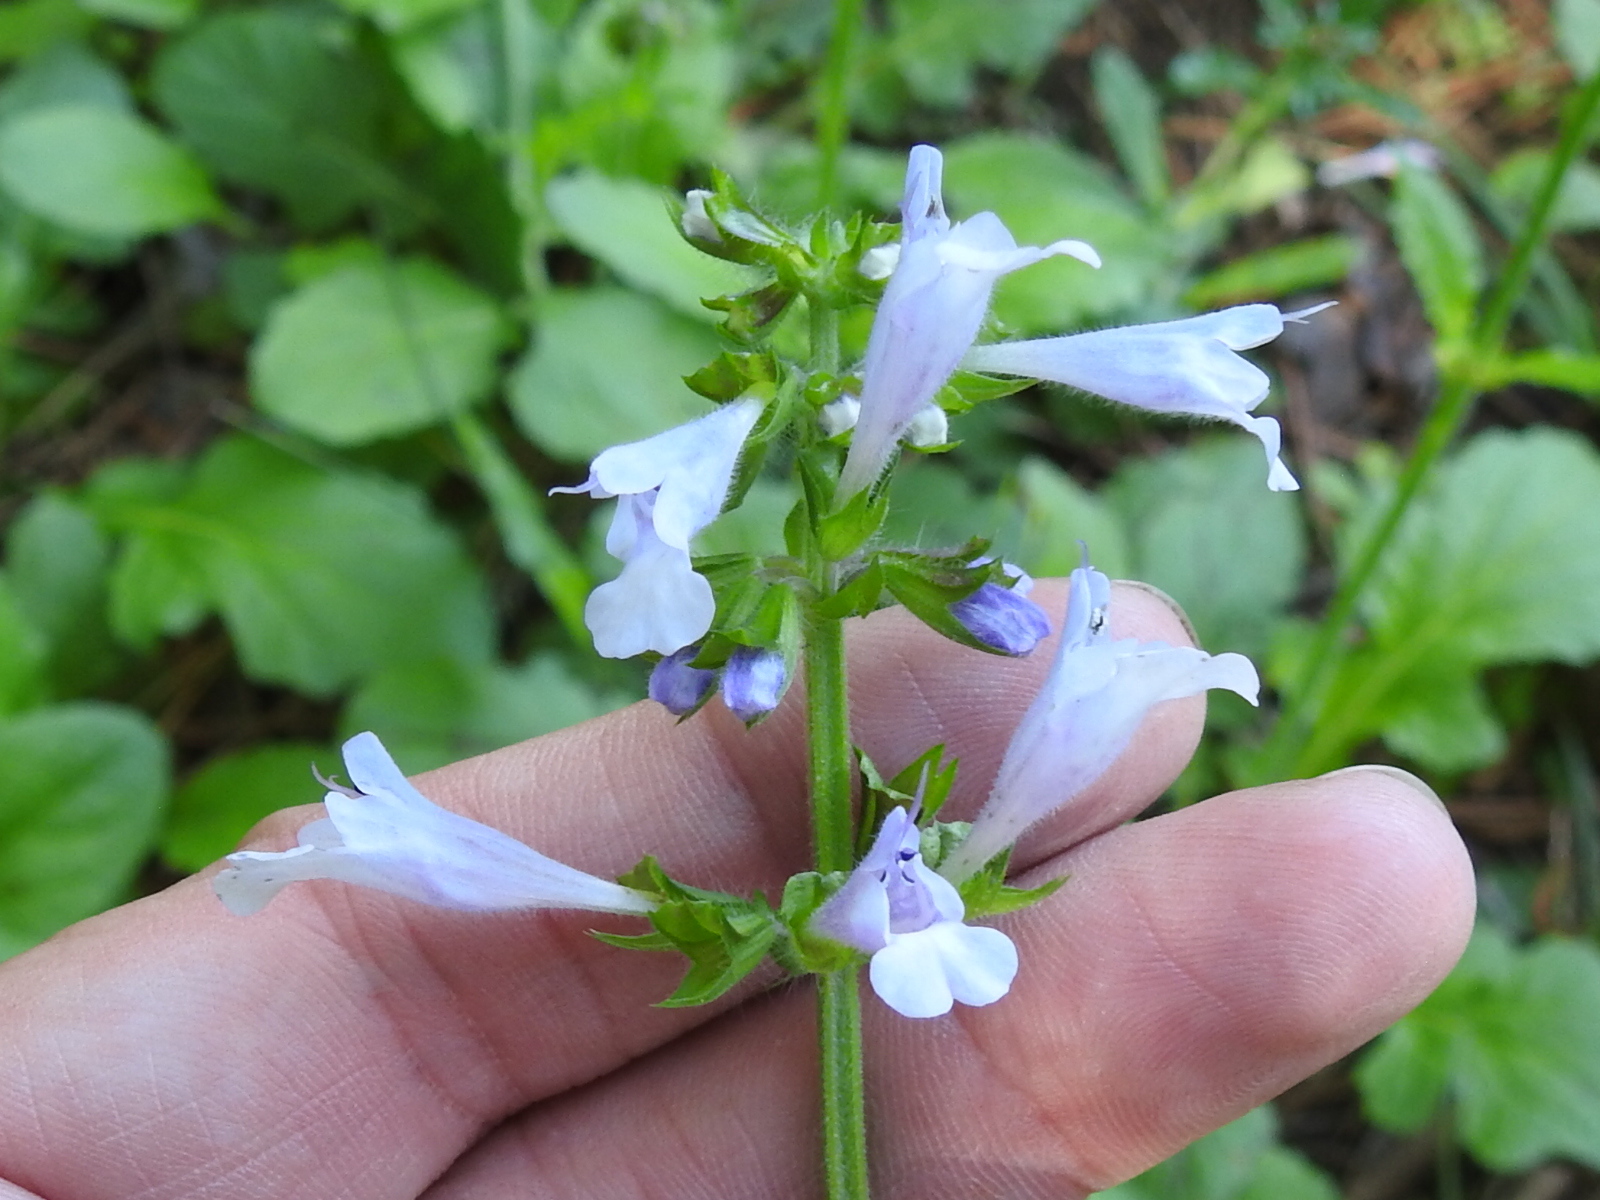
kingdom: Plantae
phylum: Tracheophyta
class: Magnoliopsida
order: Lamiales
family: Lamiaceae
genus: Salvia
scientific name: Salvia lyrata
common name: Cancerweed
